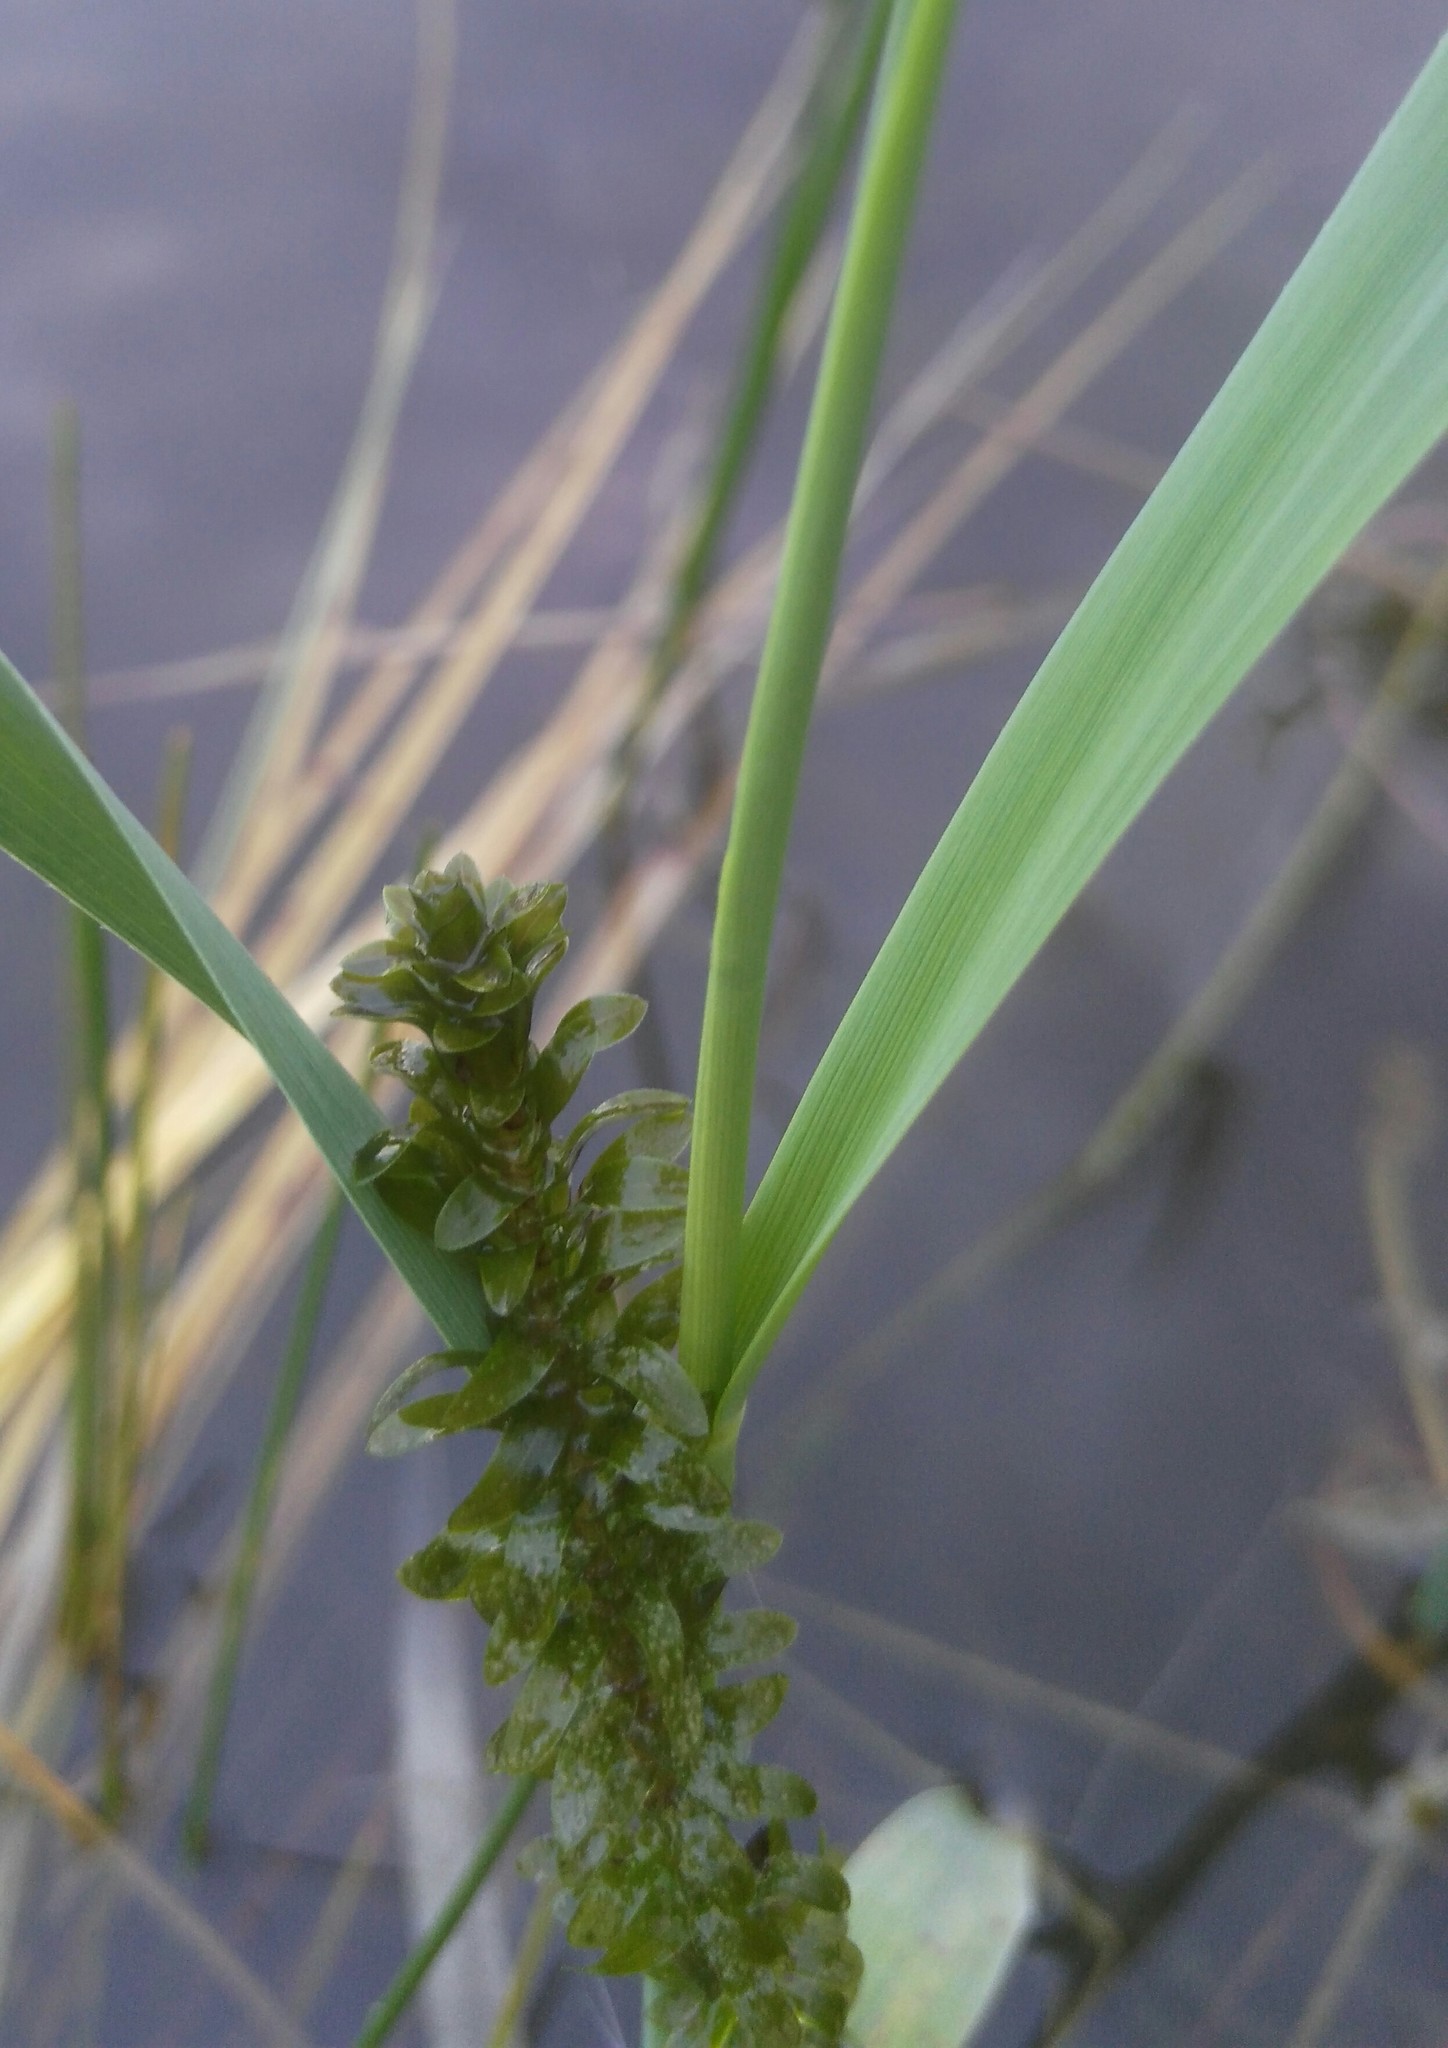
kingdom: Plantae
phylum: Tracheophyta
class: Liliopsida
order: Alismatales
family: Hydrocharitaceae
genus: Elodea
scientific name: Elodea canadensis
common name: Canadian waterweed
